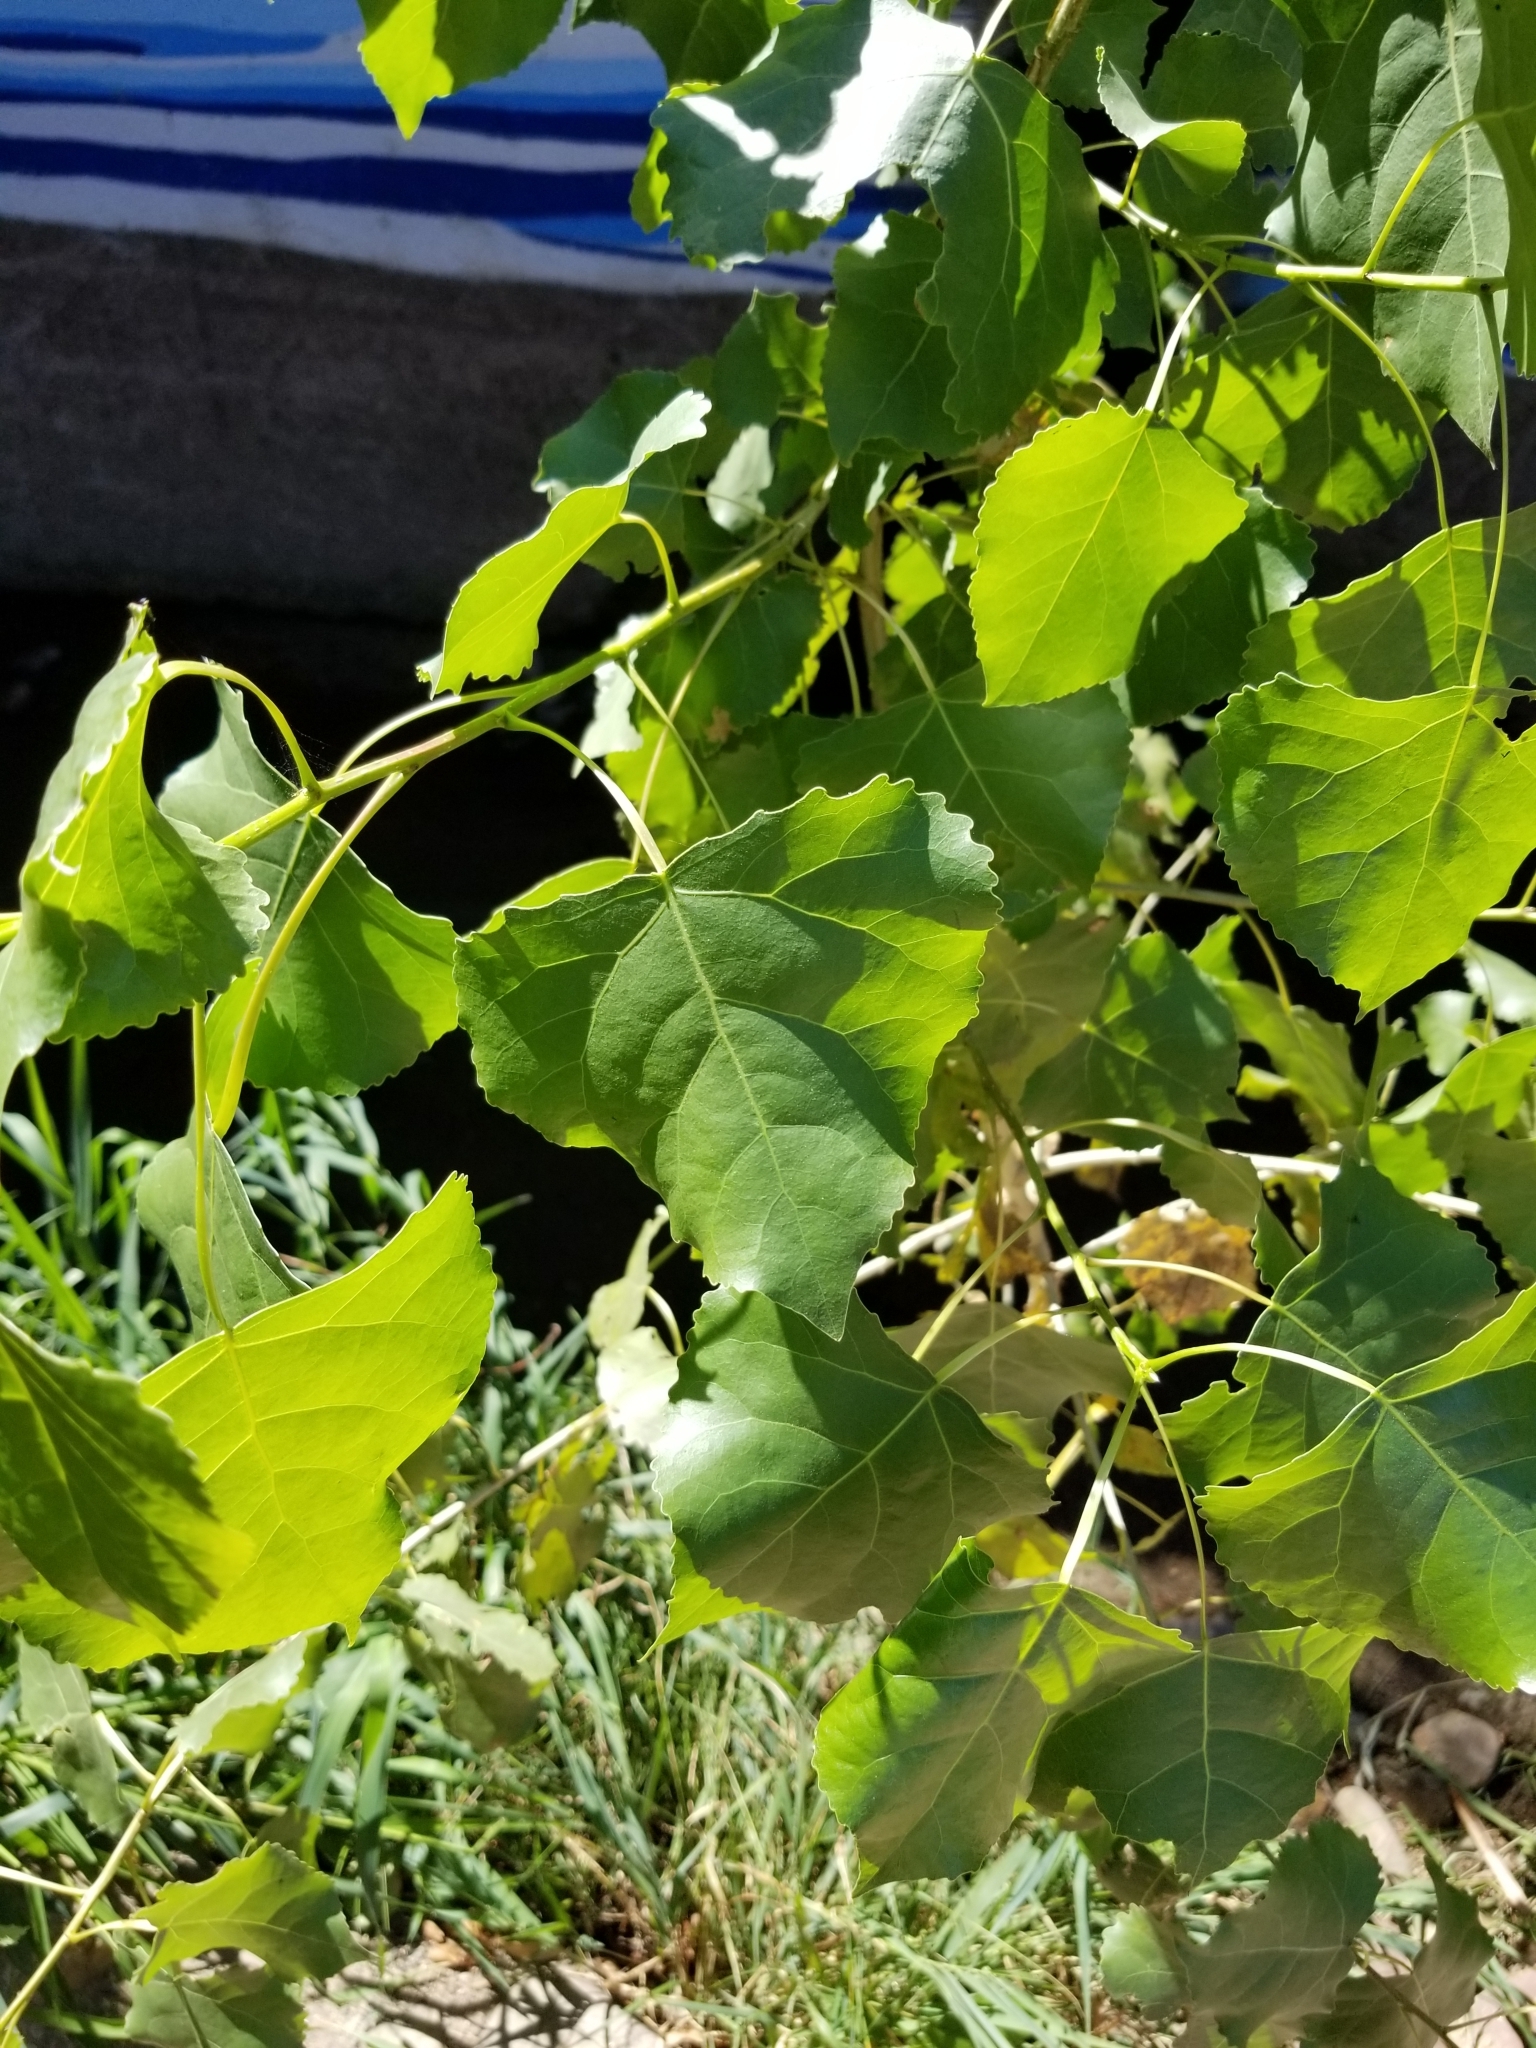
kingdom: Plantae
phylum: Tracheophyta
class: Magnoliopsida
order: Malpighiales
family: Salicaceae
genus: Populus
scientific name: Populus deltoides
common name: Eastern cottonwood
